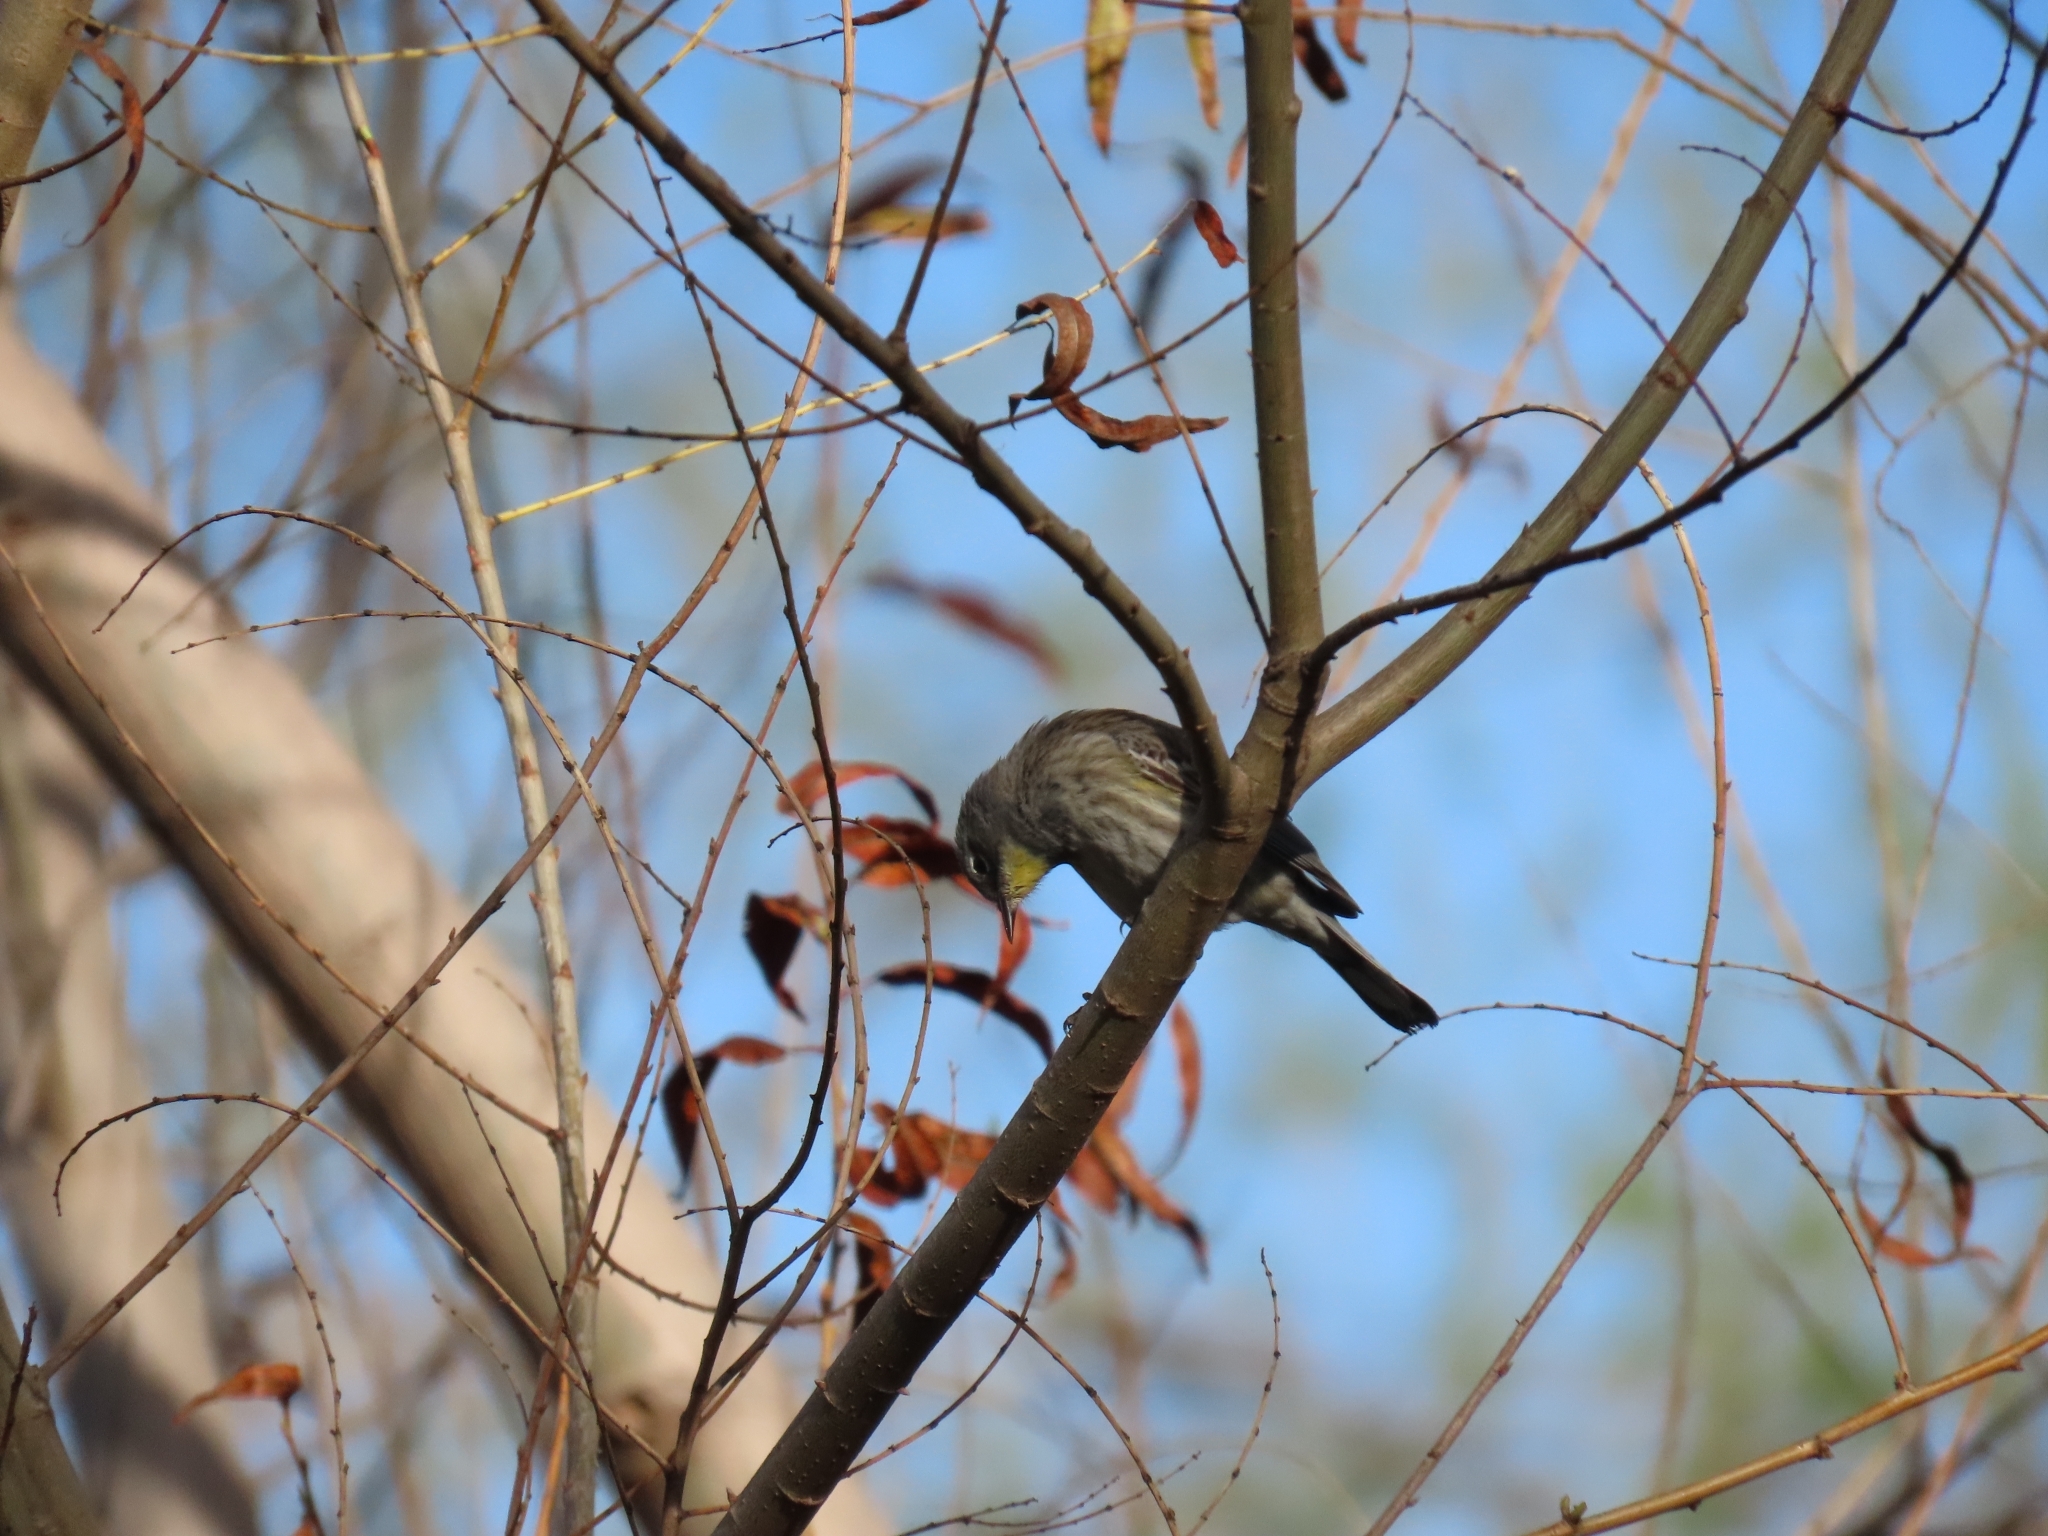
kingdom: Animalia
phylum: Chordata
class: Aves
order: Passeriformes
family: Parulidae
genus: Setophaga
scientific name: Setophaga auduboni
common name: Audubon's warbler
